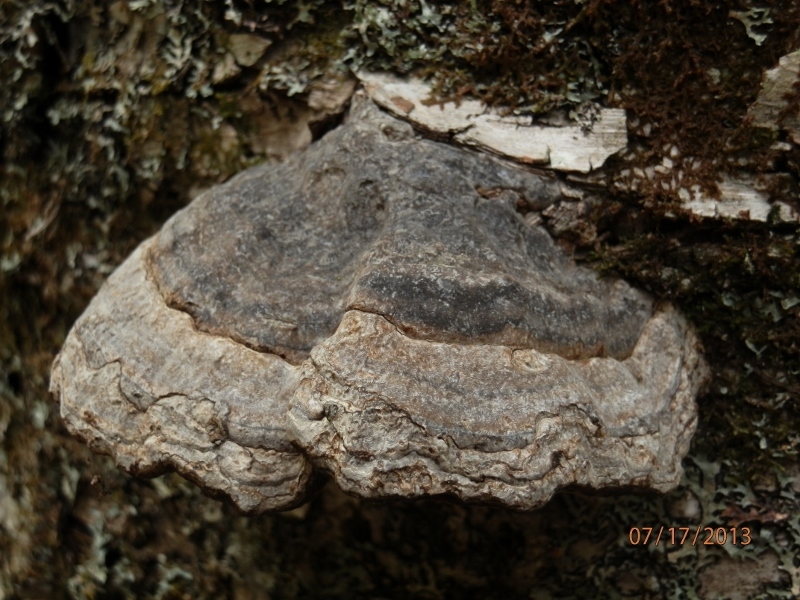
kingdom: Fungi
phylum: Basidiomycota
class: Agaricomycetes
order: Polyporales
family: Polyporaceae
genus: Fomes
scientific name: Fomes fomentarius
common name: Hoof fungus
